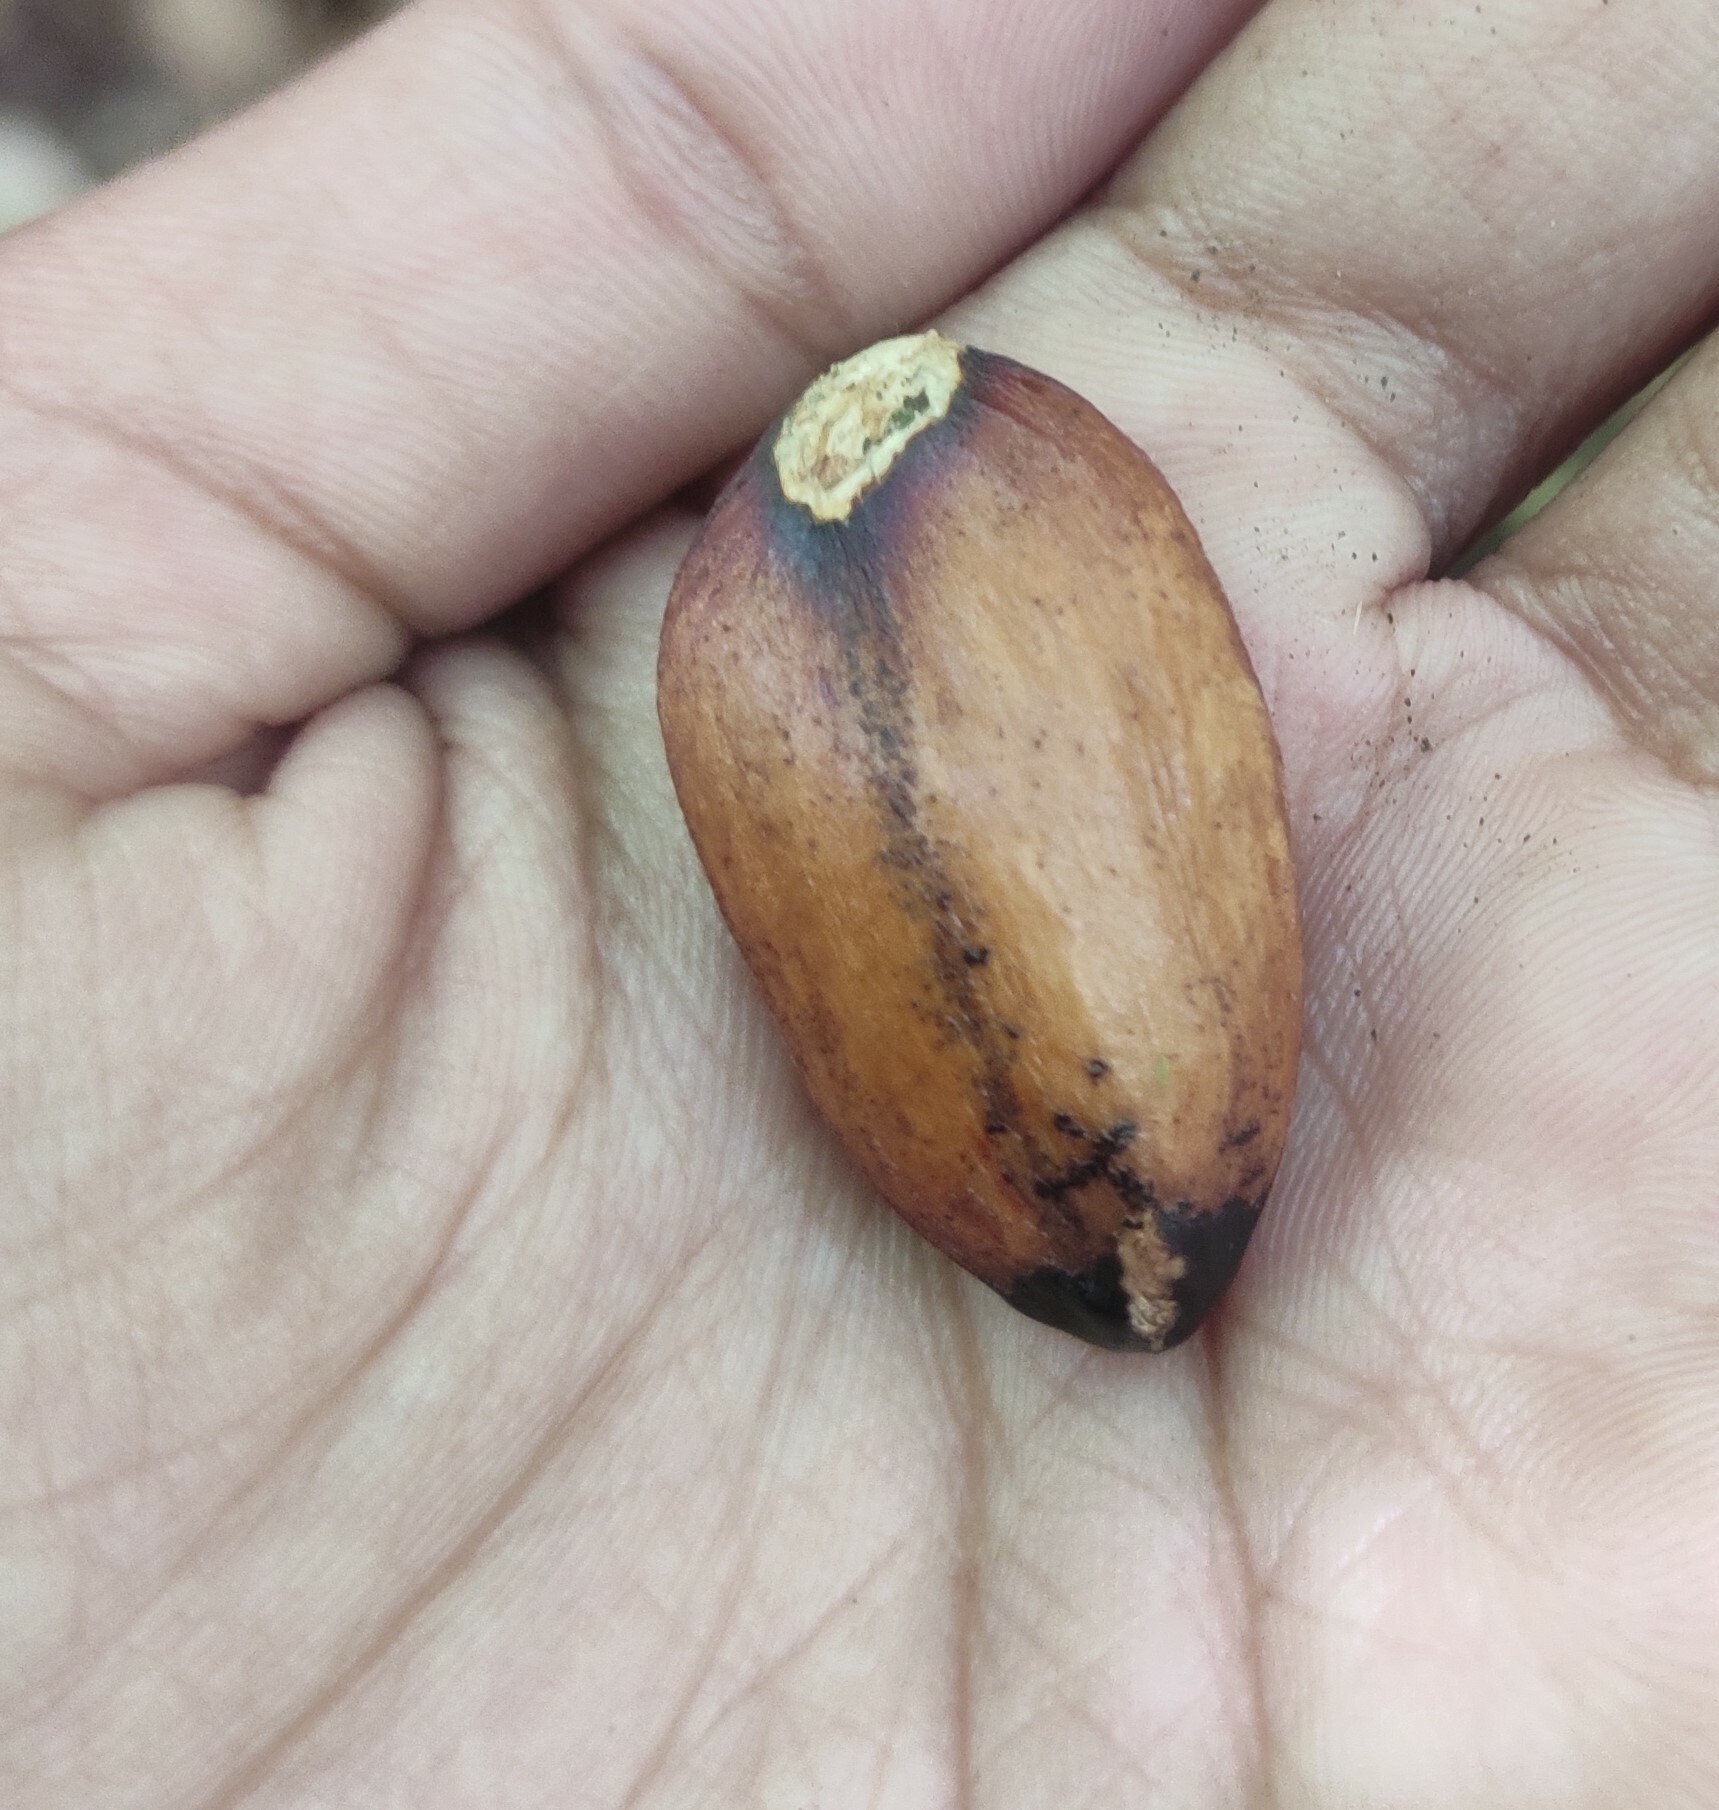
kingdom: Plantae
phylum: Tracheophyta
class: Magnoliopsida
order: Malpighiales
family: Centroplacaceae
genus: Bhesa
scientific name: Bhesa indica
